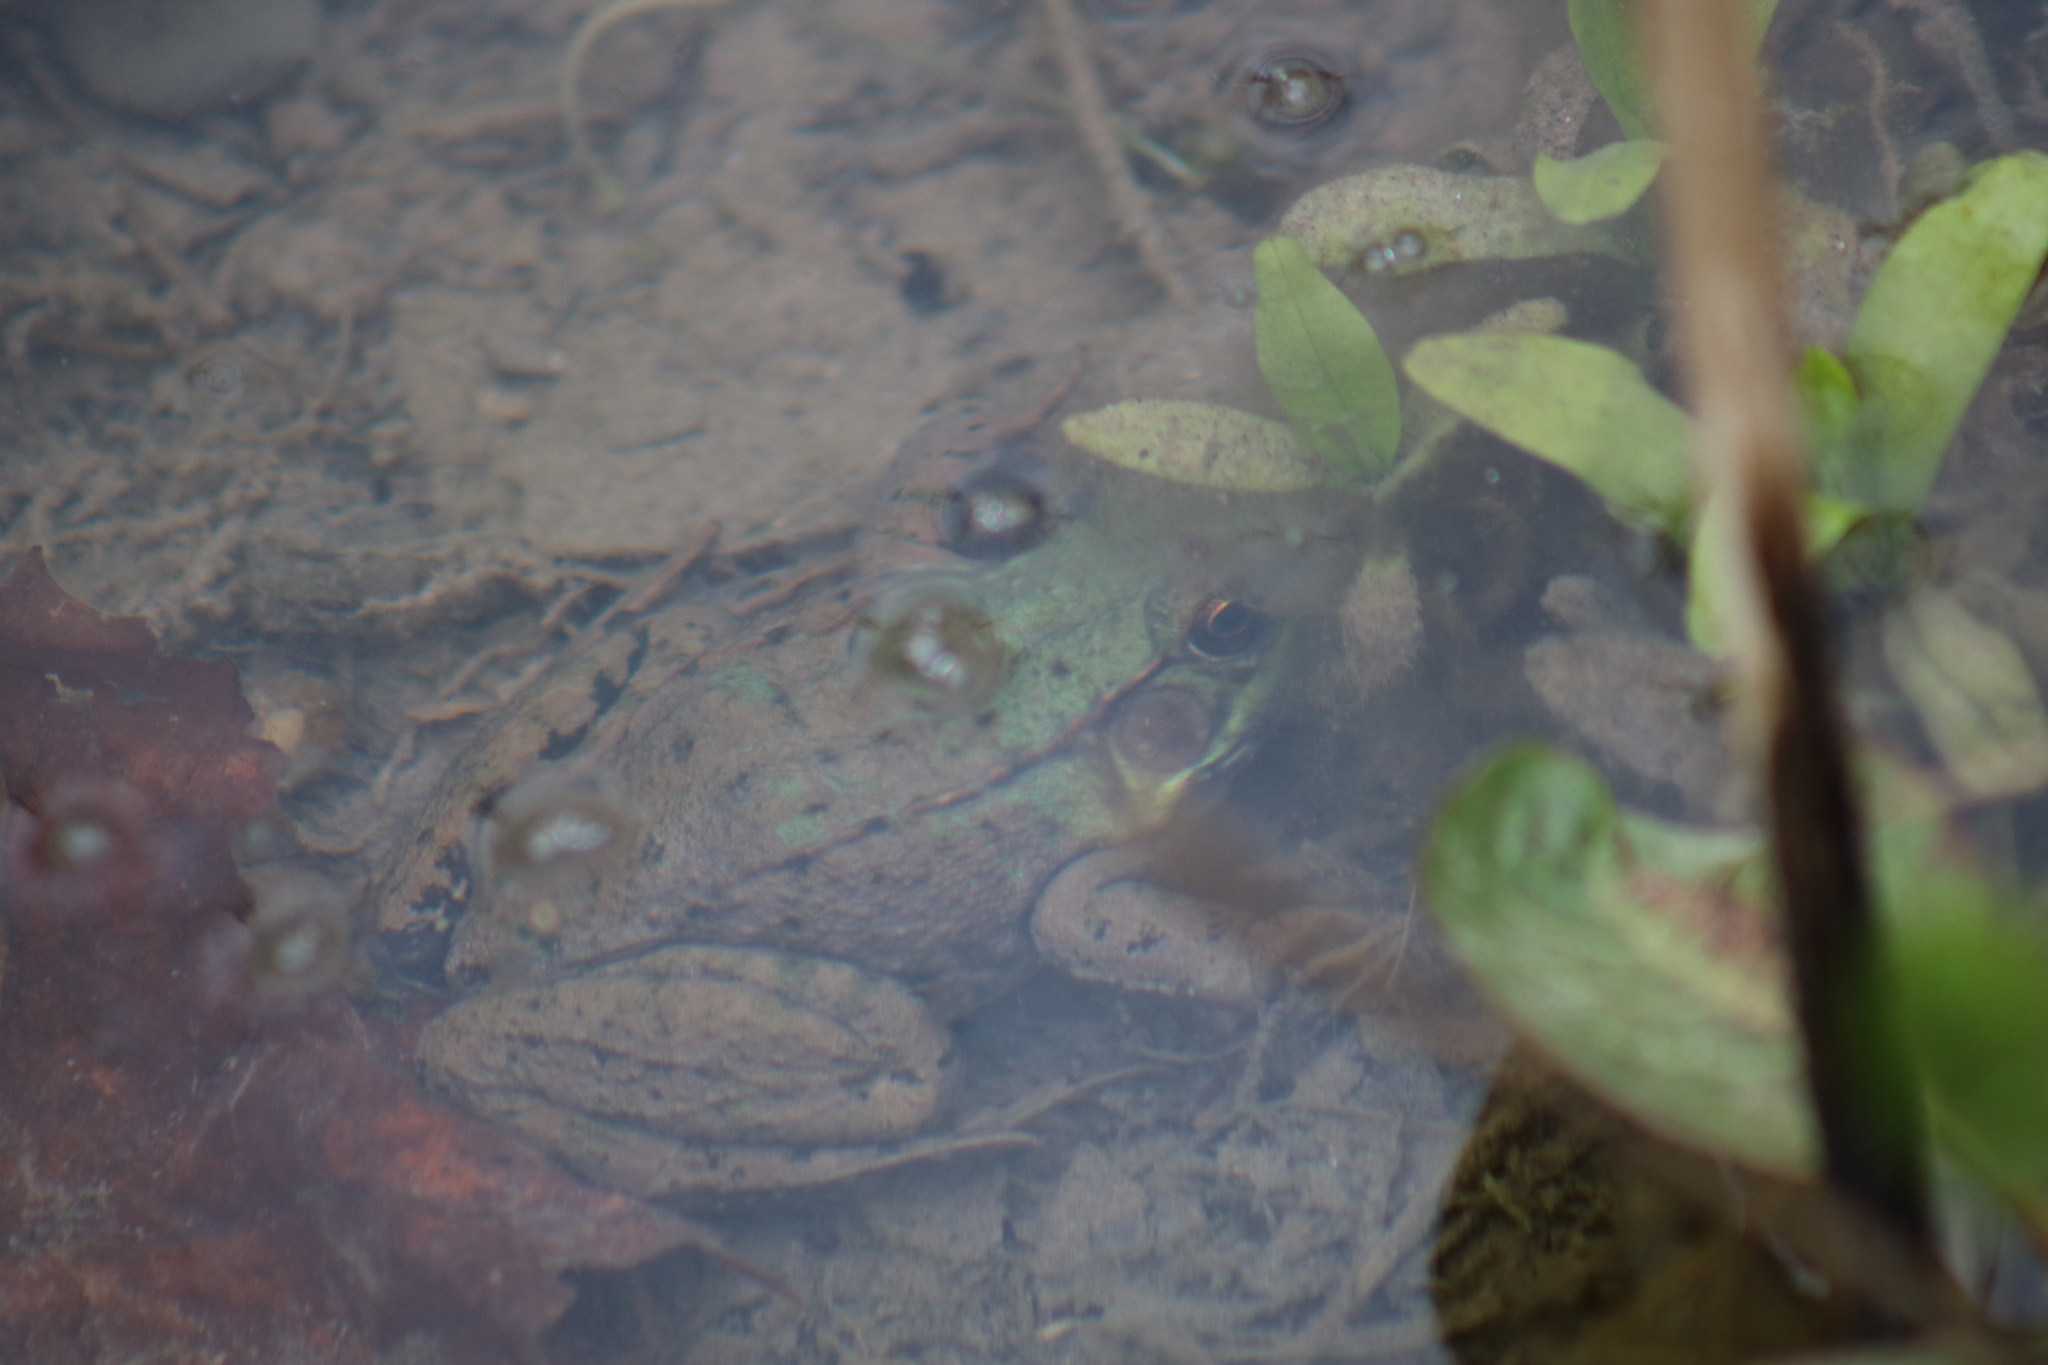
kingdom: Animalia
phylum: Chordata
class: Amphibia
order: Anura
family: Ranidae
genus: Lithobates
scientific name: Lithobates clamitans
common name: Green frog
